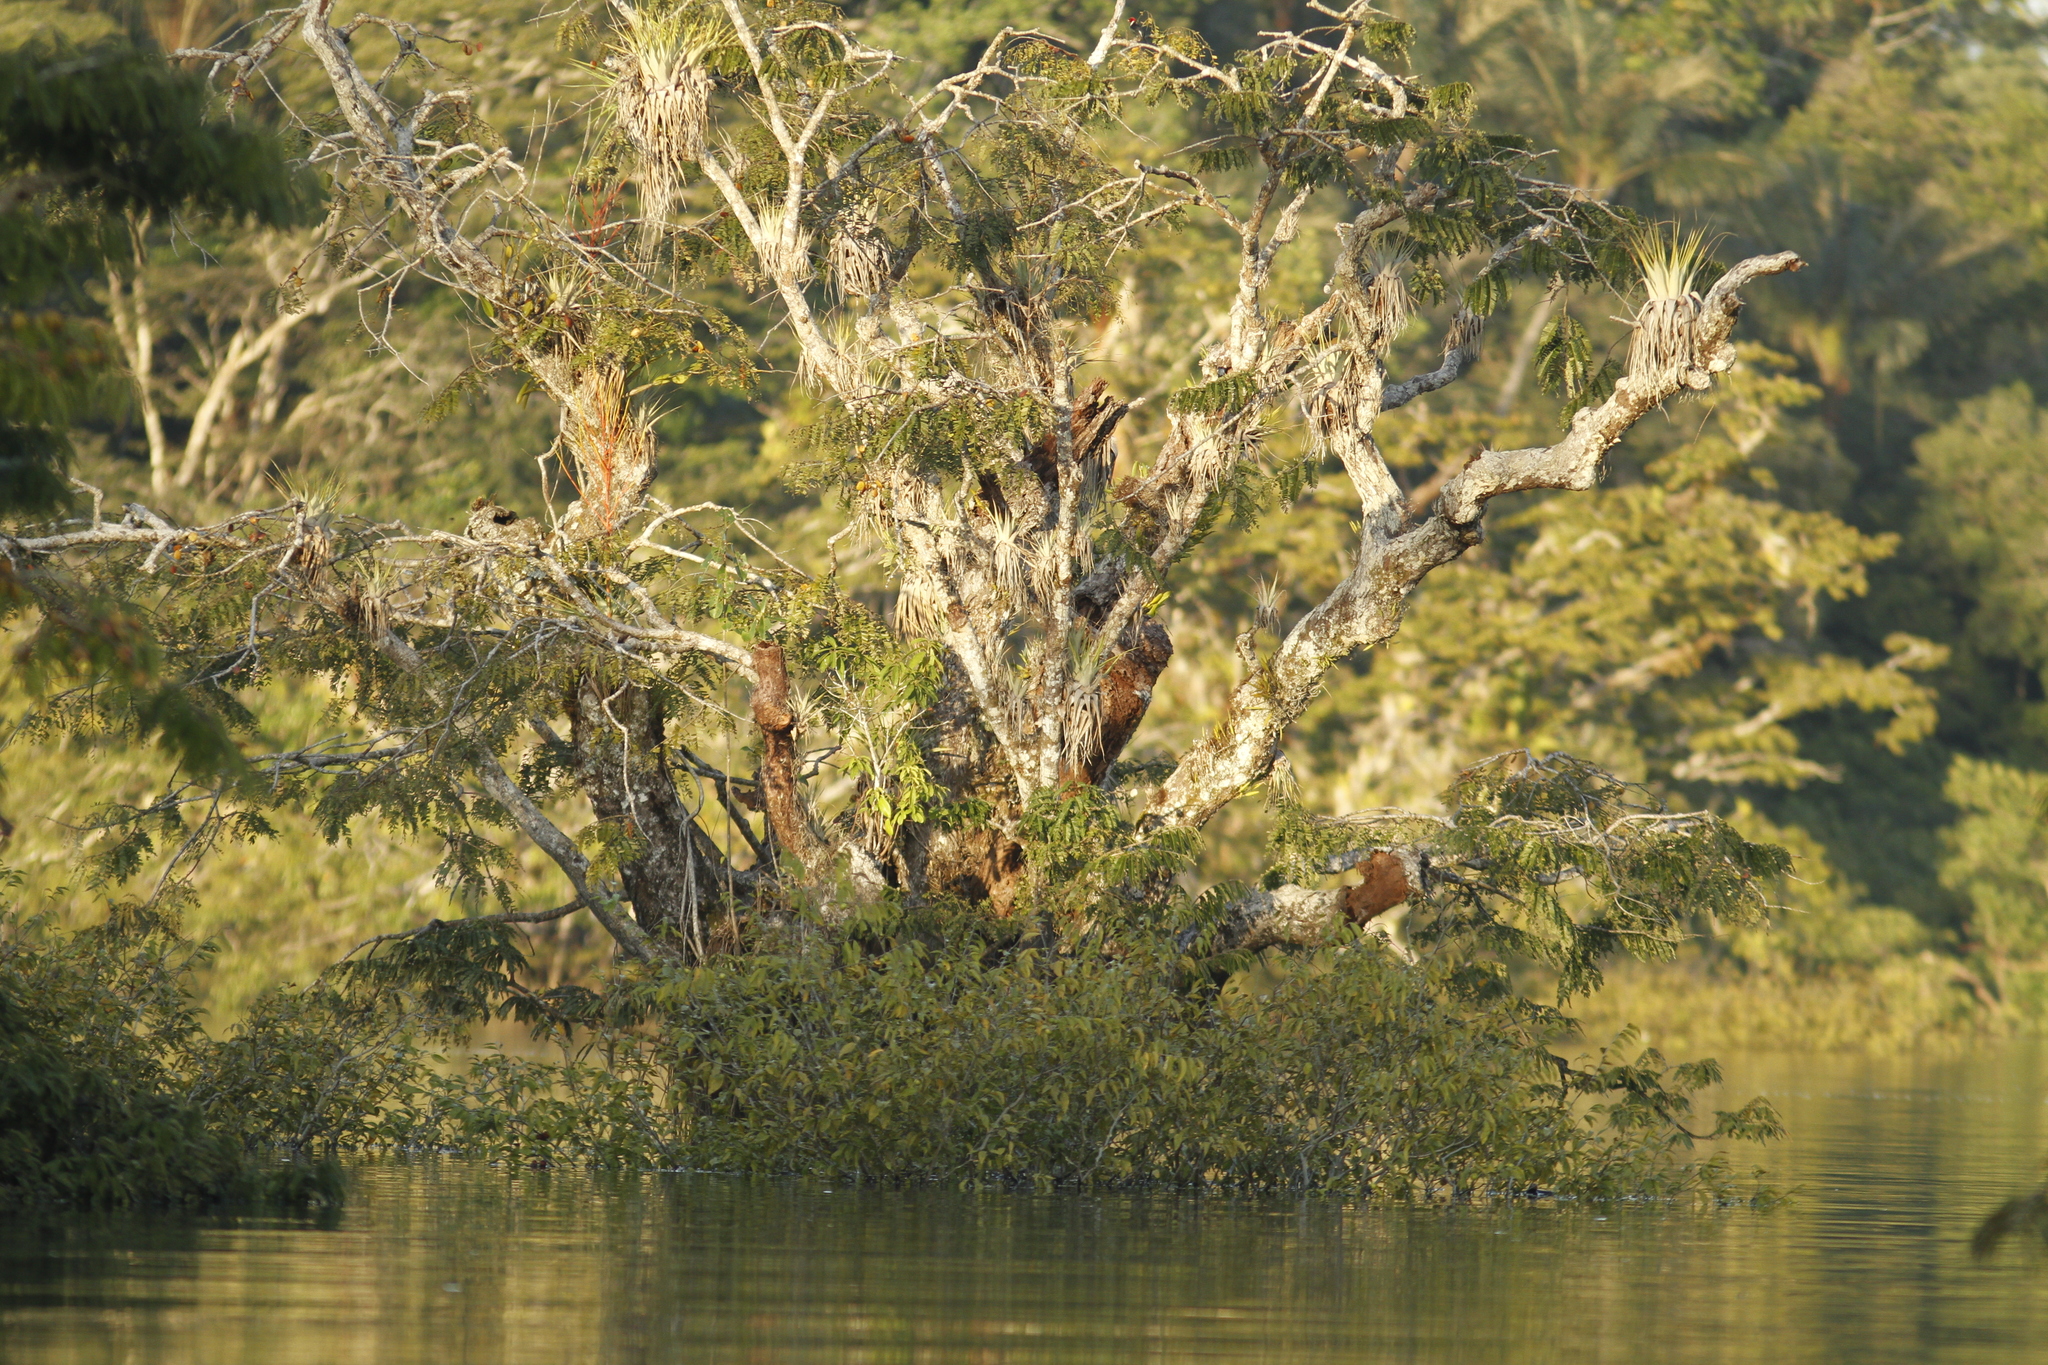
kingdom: Plantae
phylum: Tracheophyta
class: Magnoliopsida
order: Fabales
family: Fabaceae
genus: Macrolobium
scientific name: Macrolobium acaciifolium
